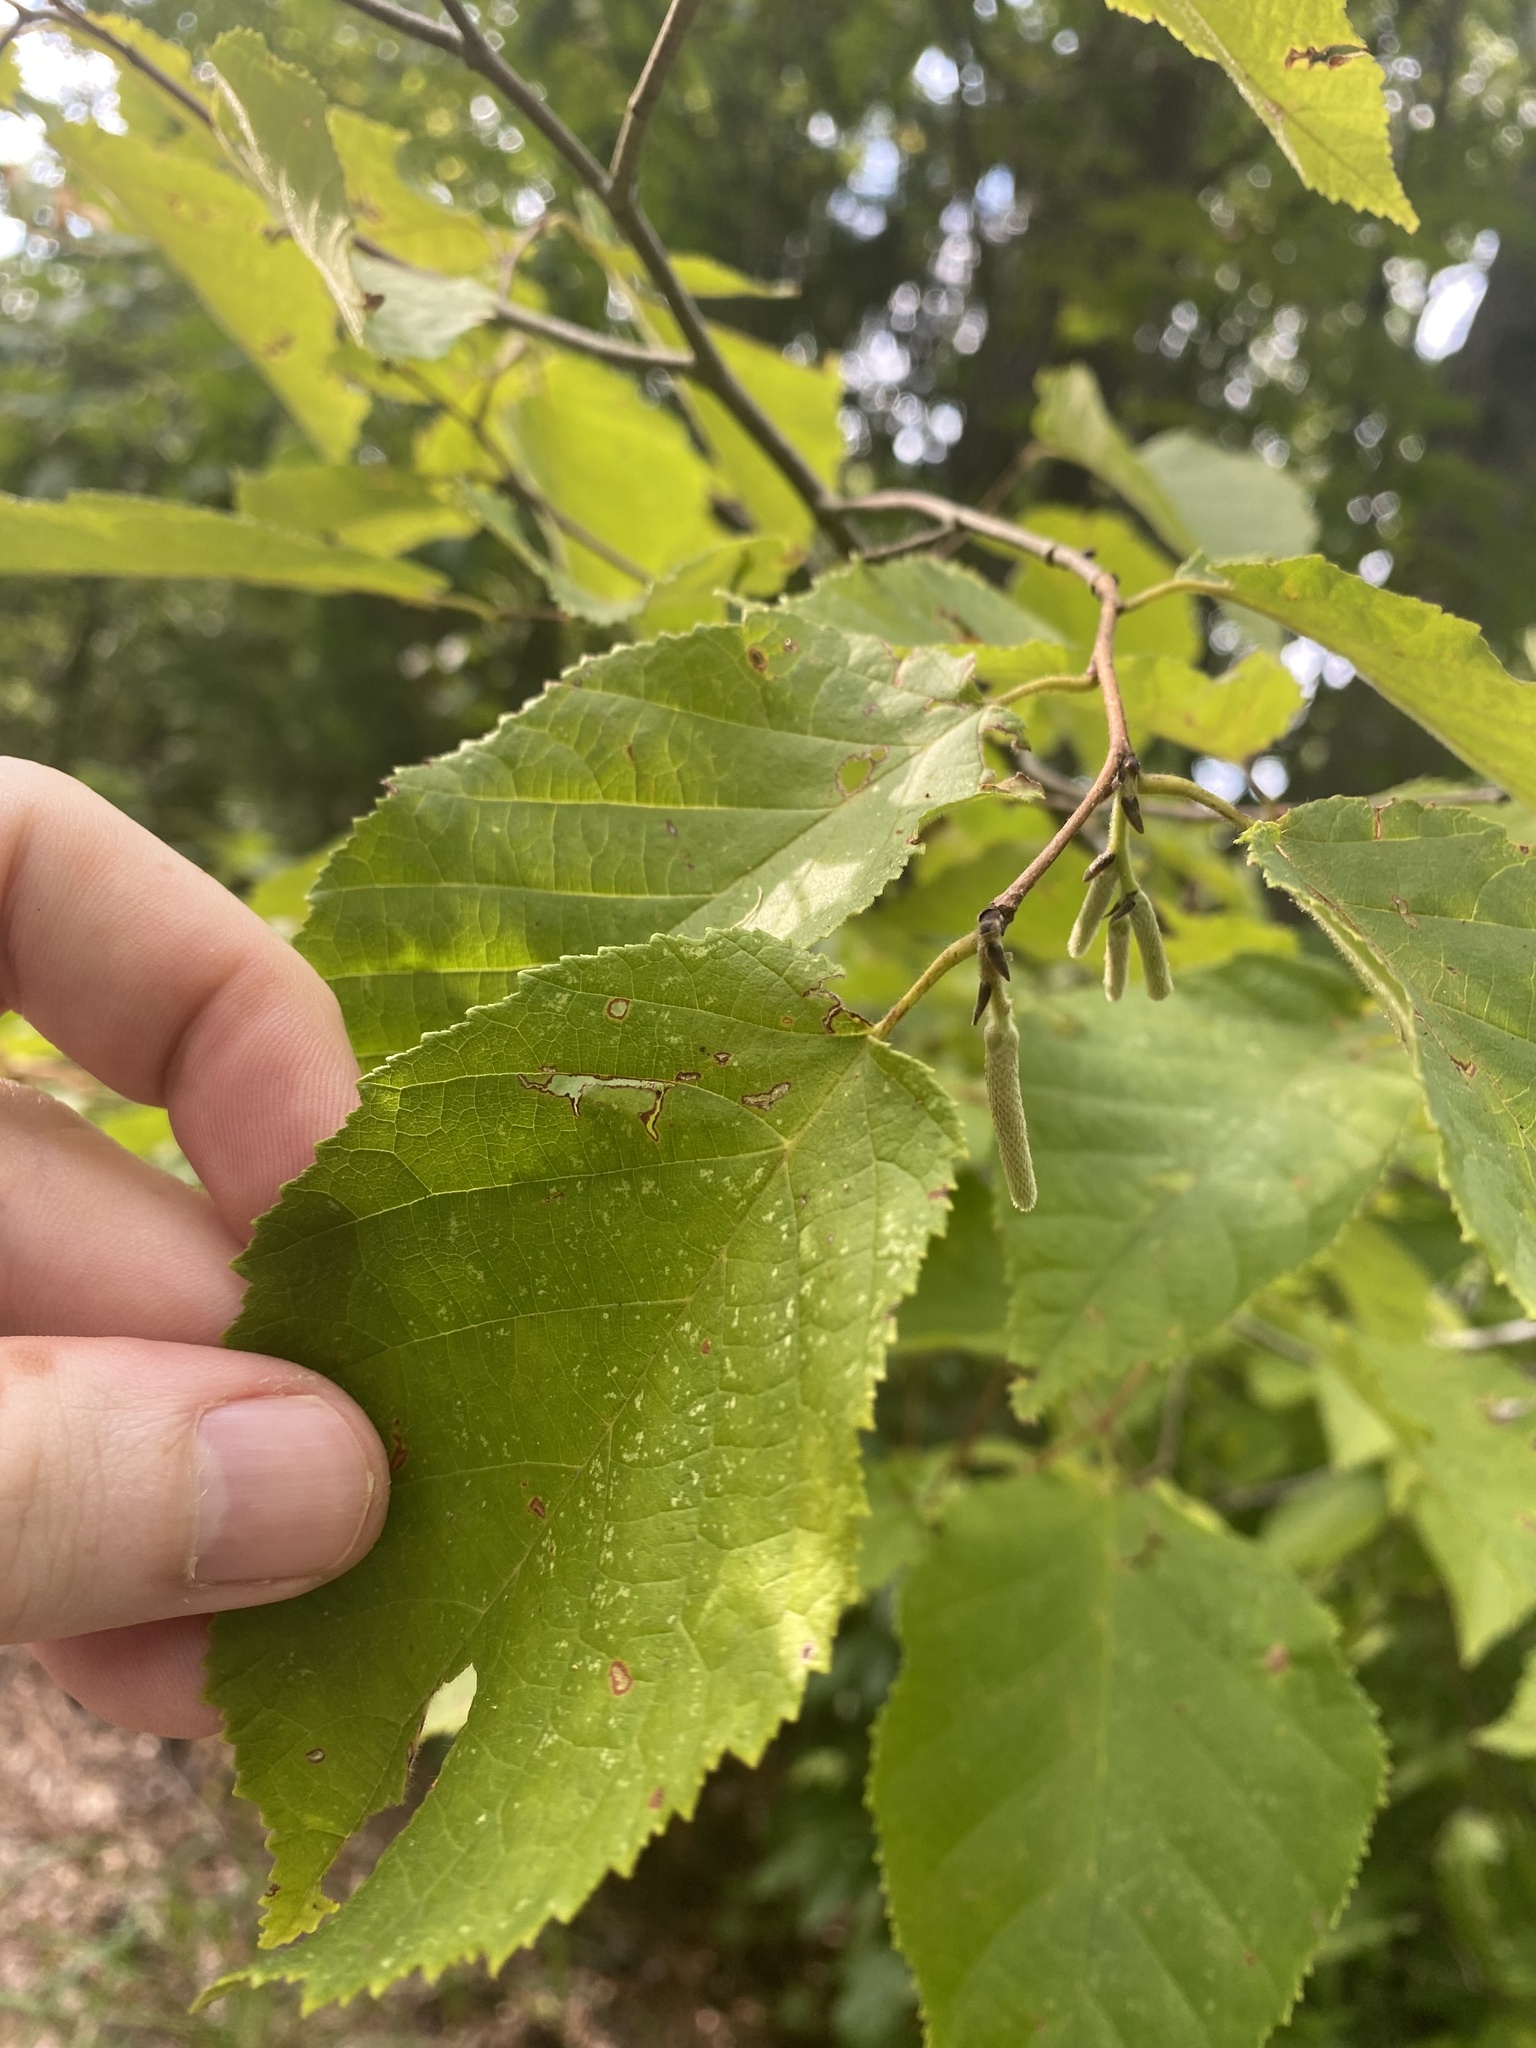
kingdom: Plantae
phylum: Tracheophyta
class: Magnoliopsida
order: Fagales
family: Betulaceae
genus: Corylus
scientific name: Corylus americana
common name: American hazel
